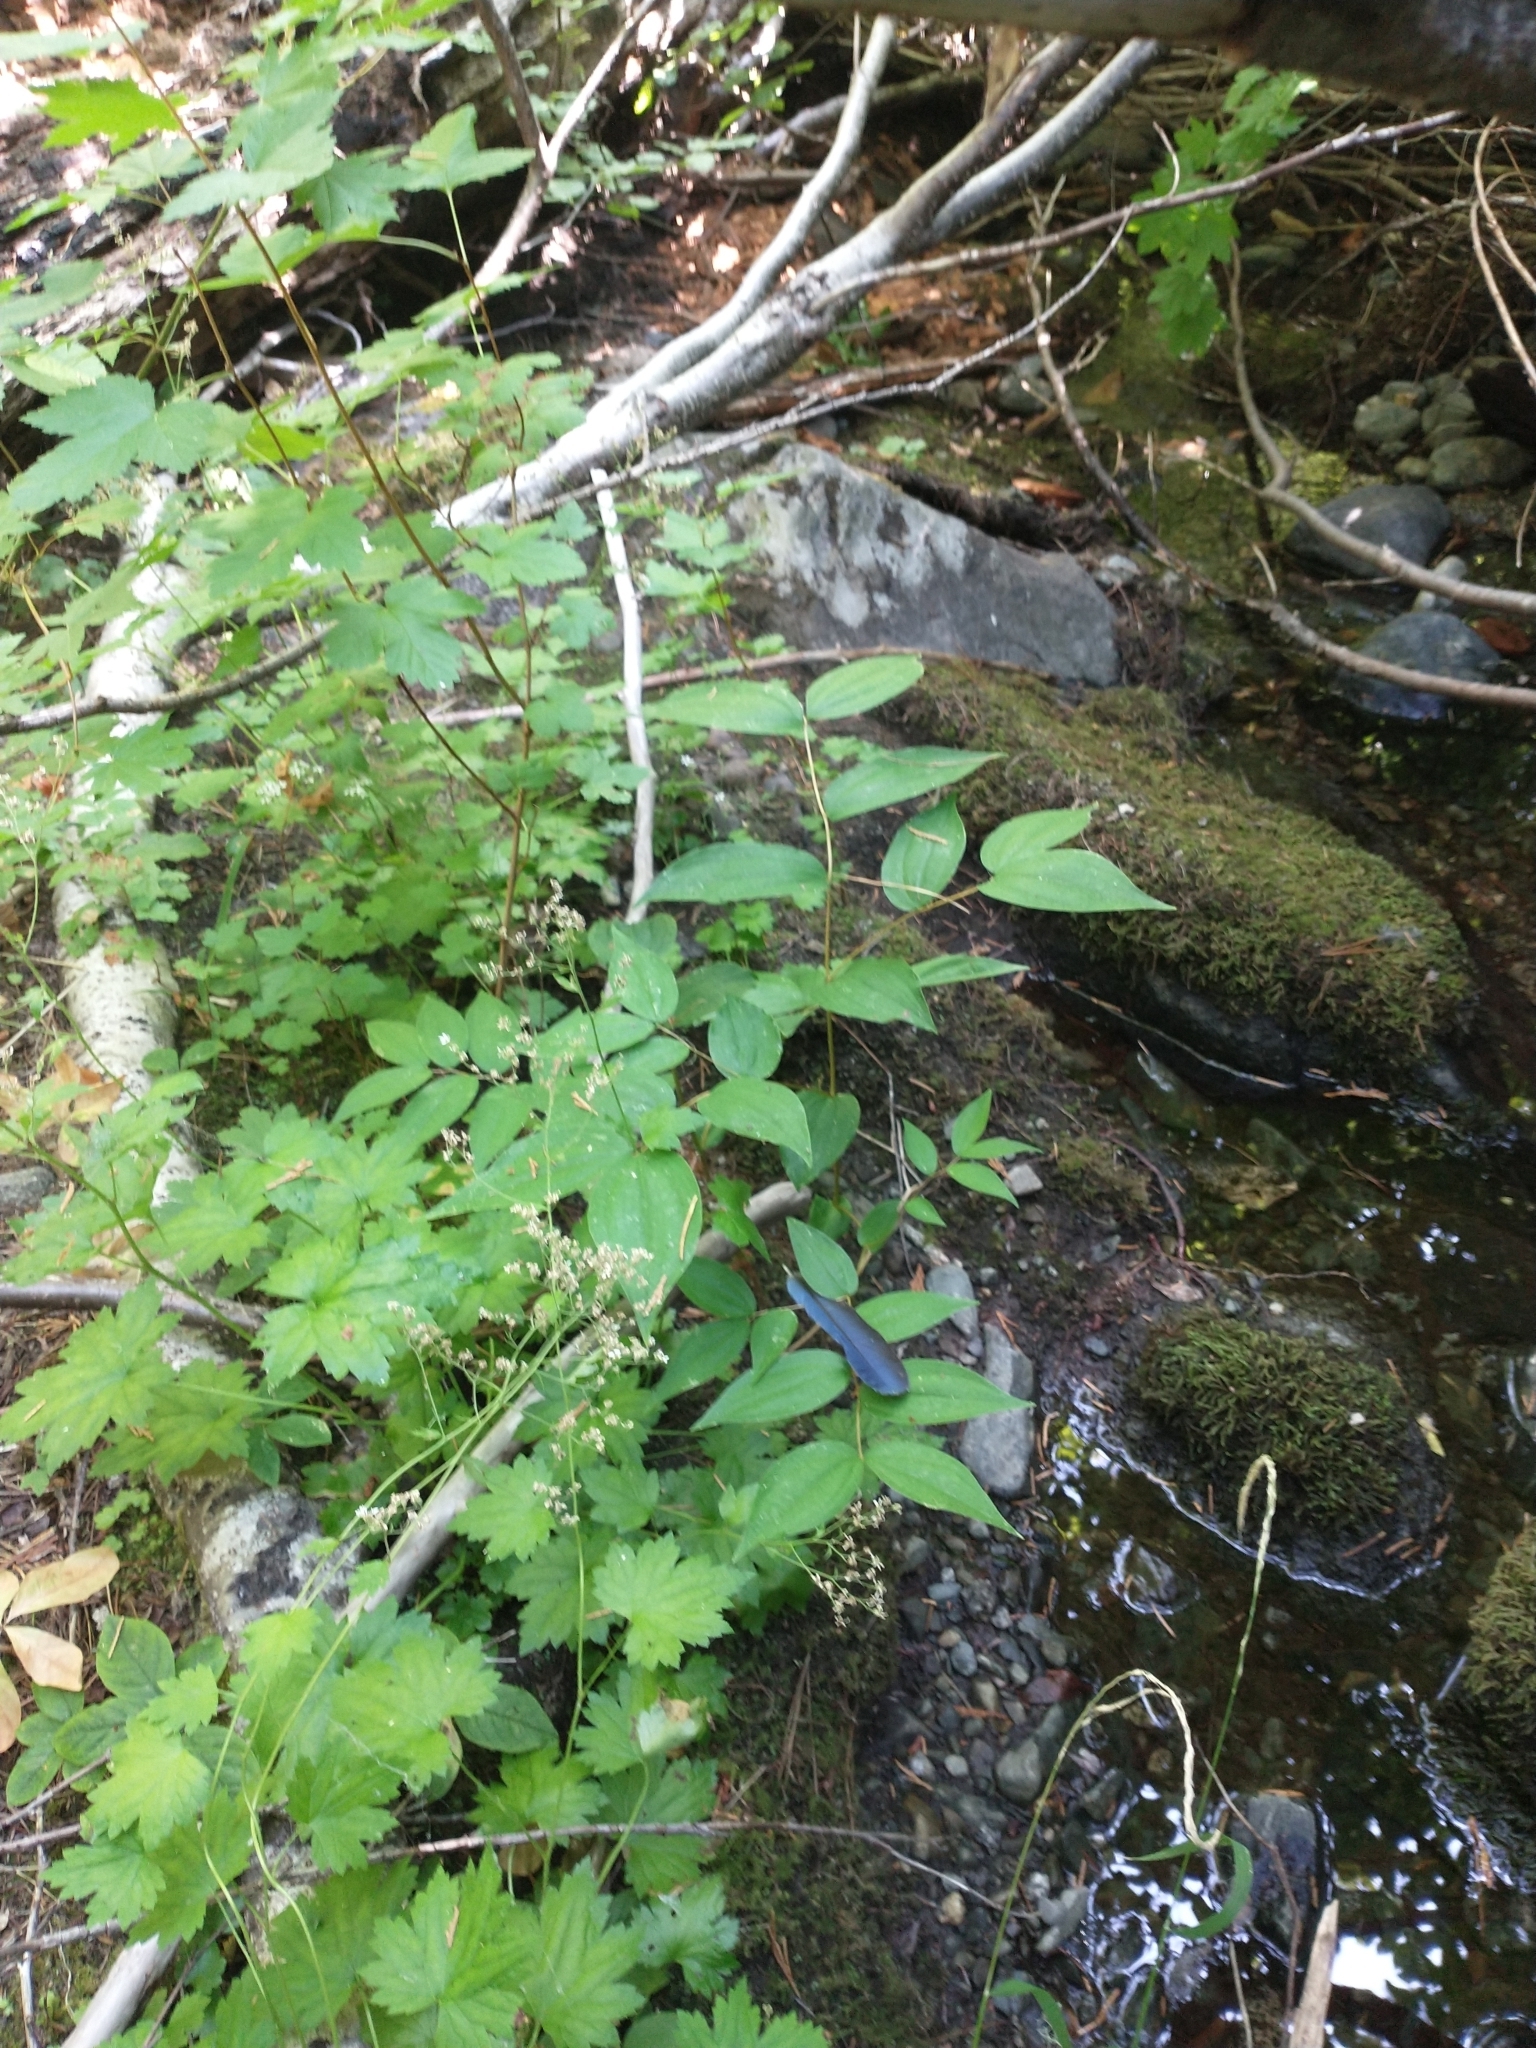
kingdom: Animalia
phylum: Chordata
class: Aves
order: Passeriformes
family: Corvidae
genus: Cyanocitta
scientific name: Cyanocitta stelleri
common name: Steller's jay
